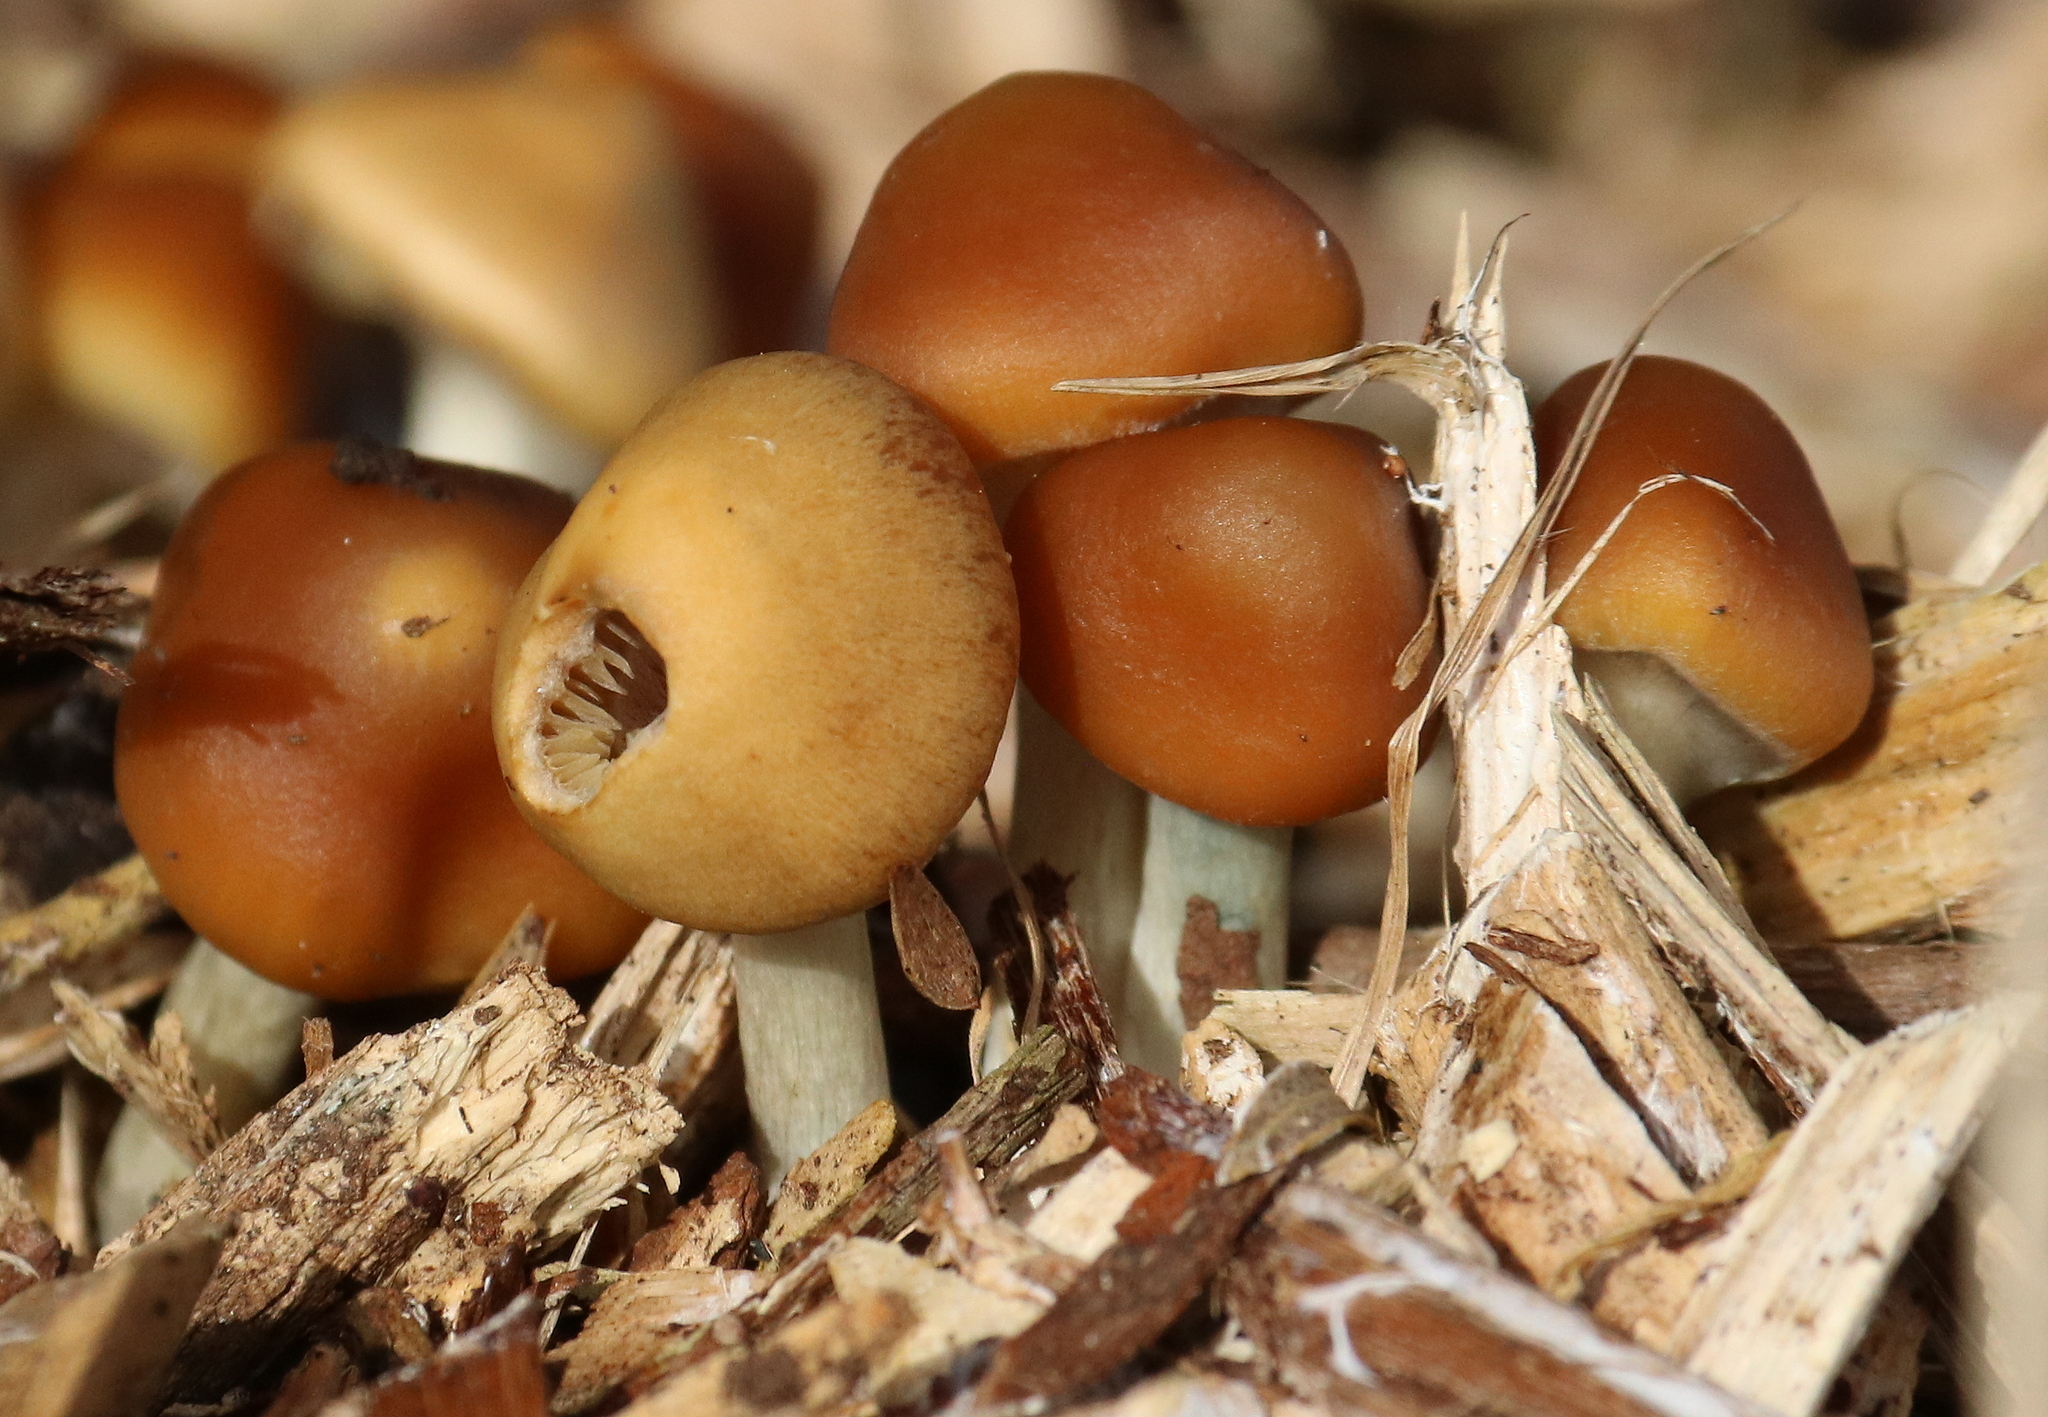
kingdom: Fungi
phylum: Basidiomycota
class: Agaricomycetes
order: Agaricales
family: Hymenogastraceae
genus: Psilocybe
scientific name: Psilocybe allenii
